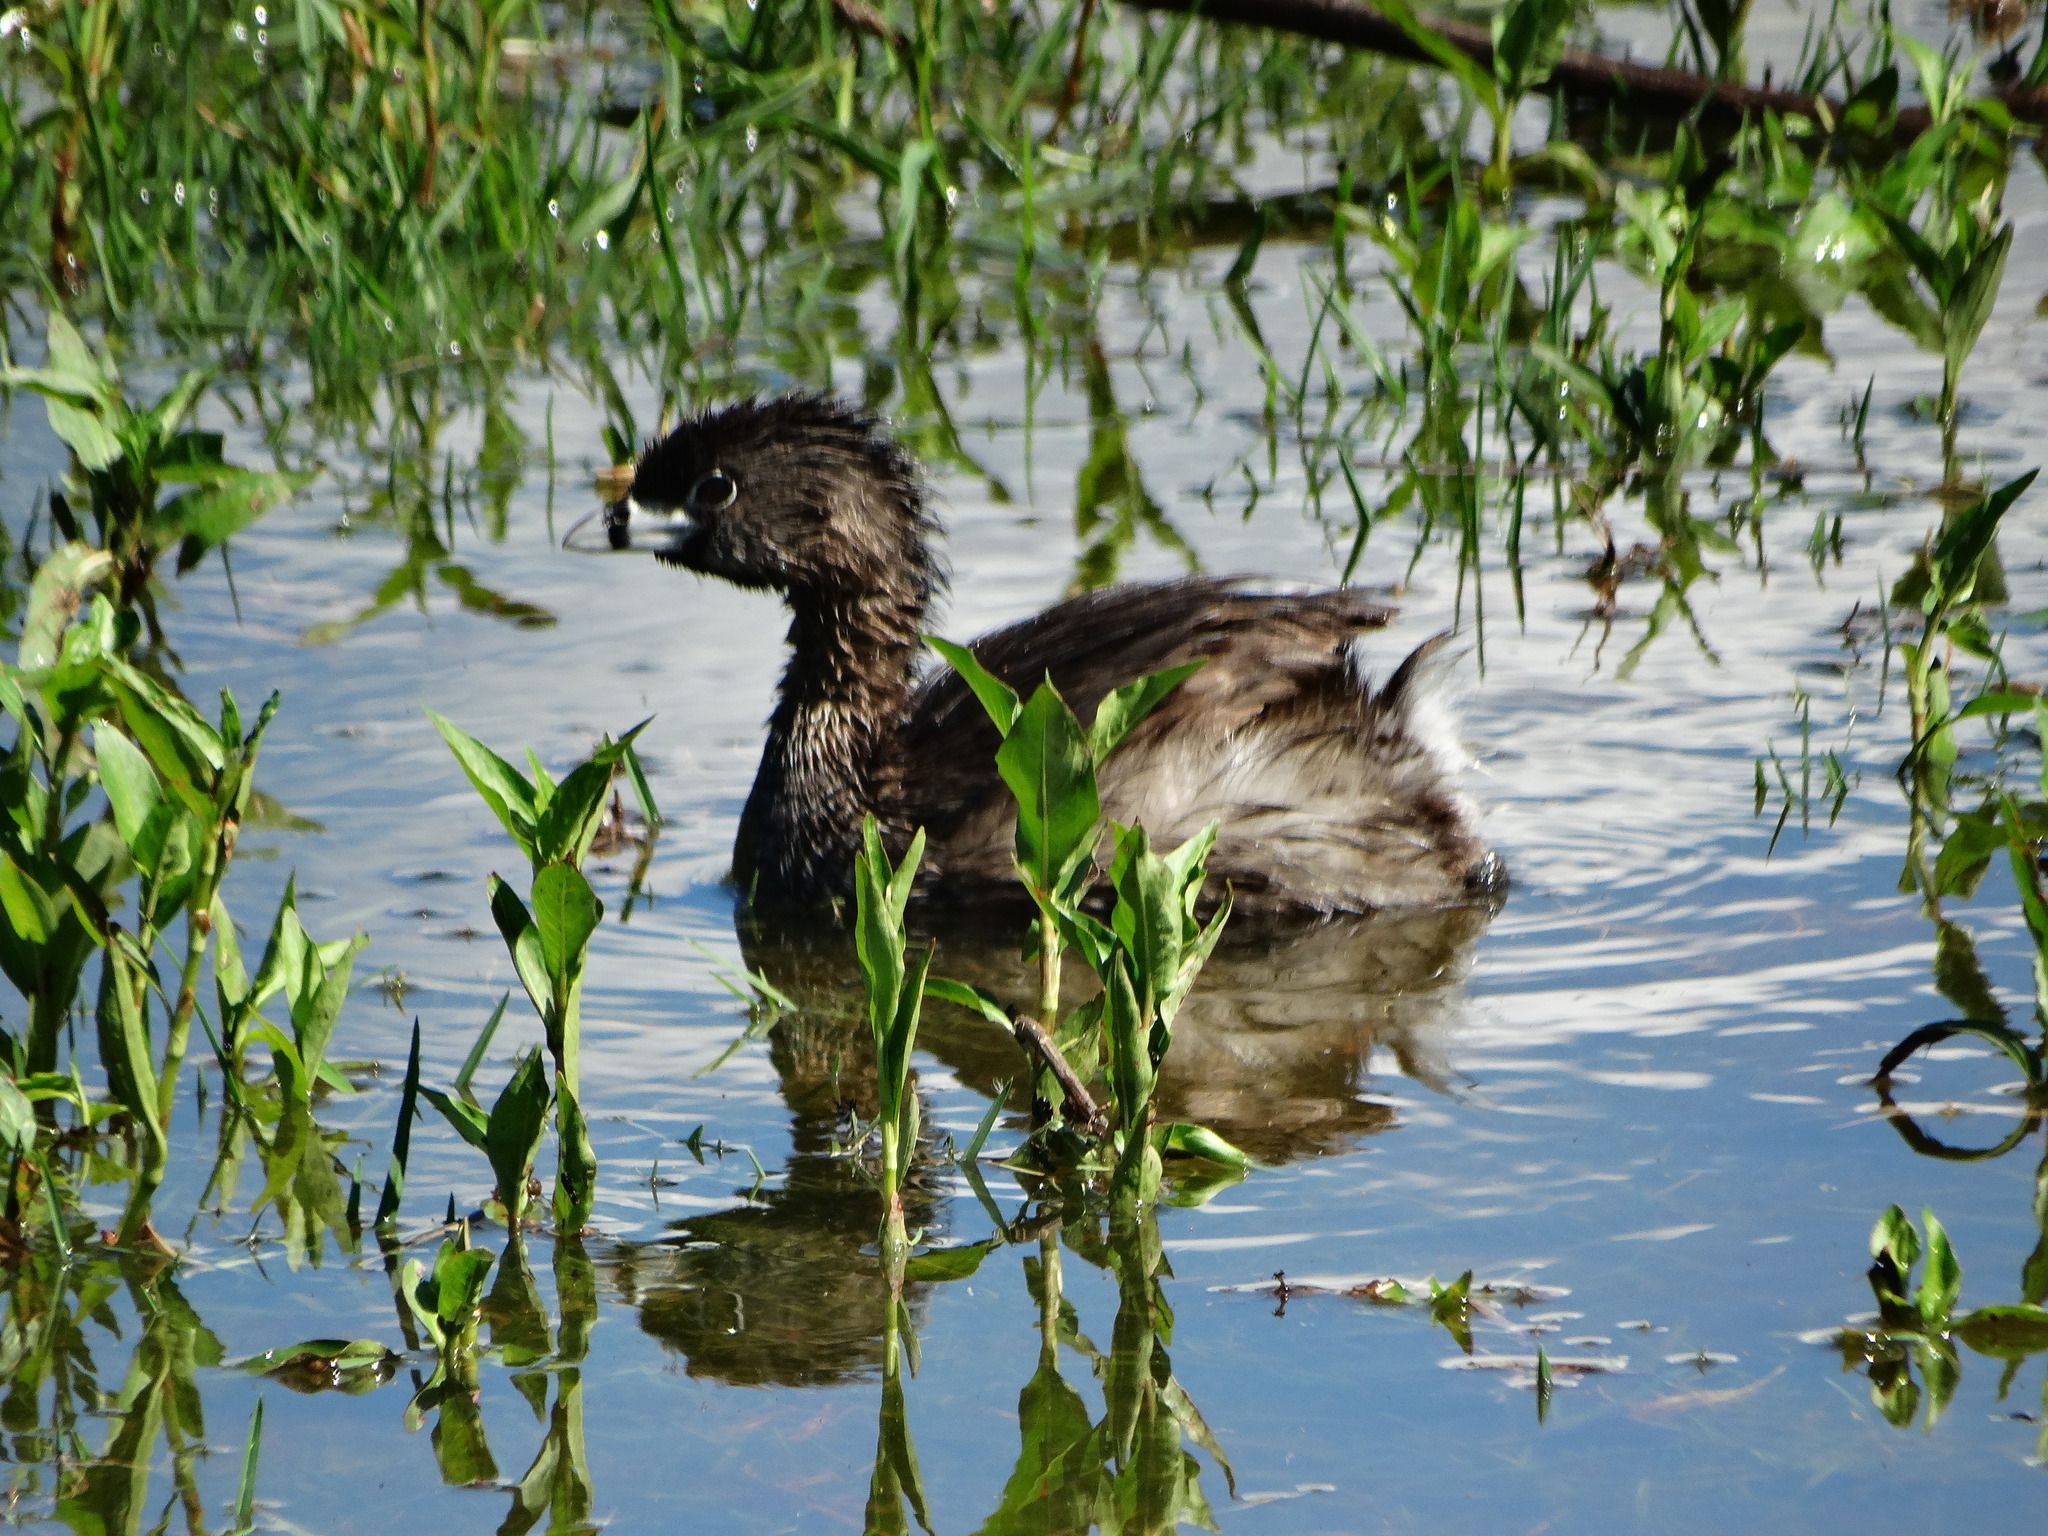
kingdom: Animalia
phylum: Chordata
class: Aves
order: Podicipediformes
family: Podicipedidae
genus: Podilymbus
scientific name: Podilymbus podiceps
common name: Pied-billed grebe
